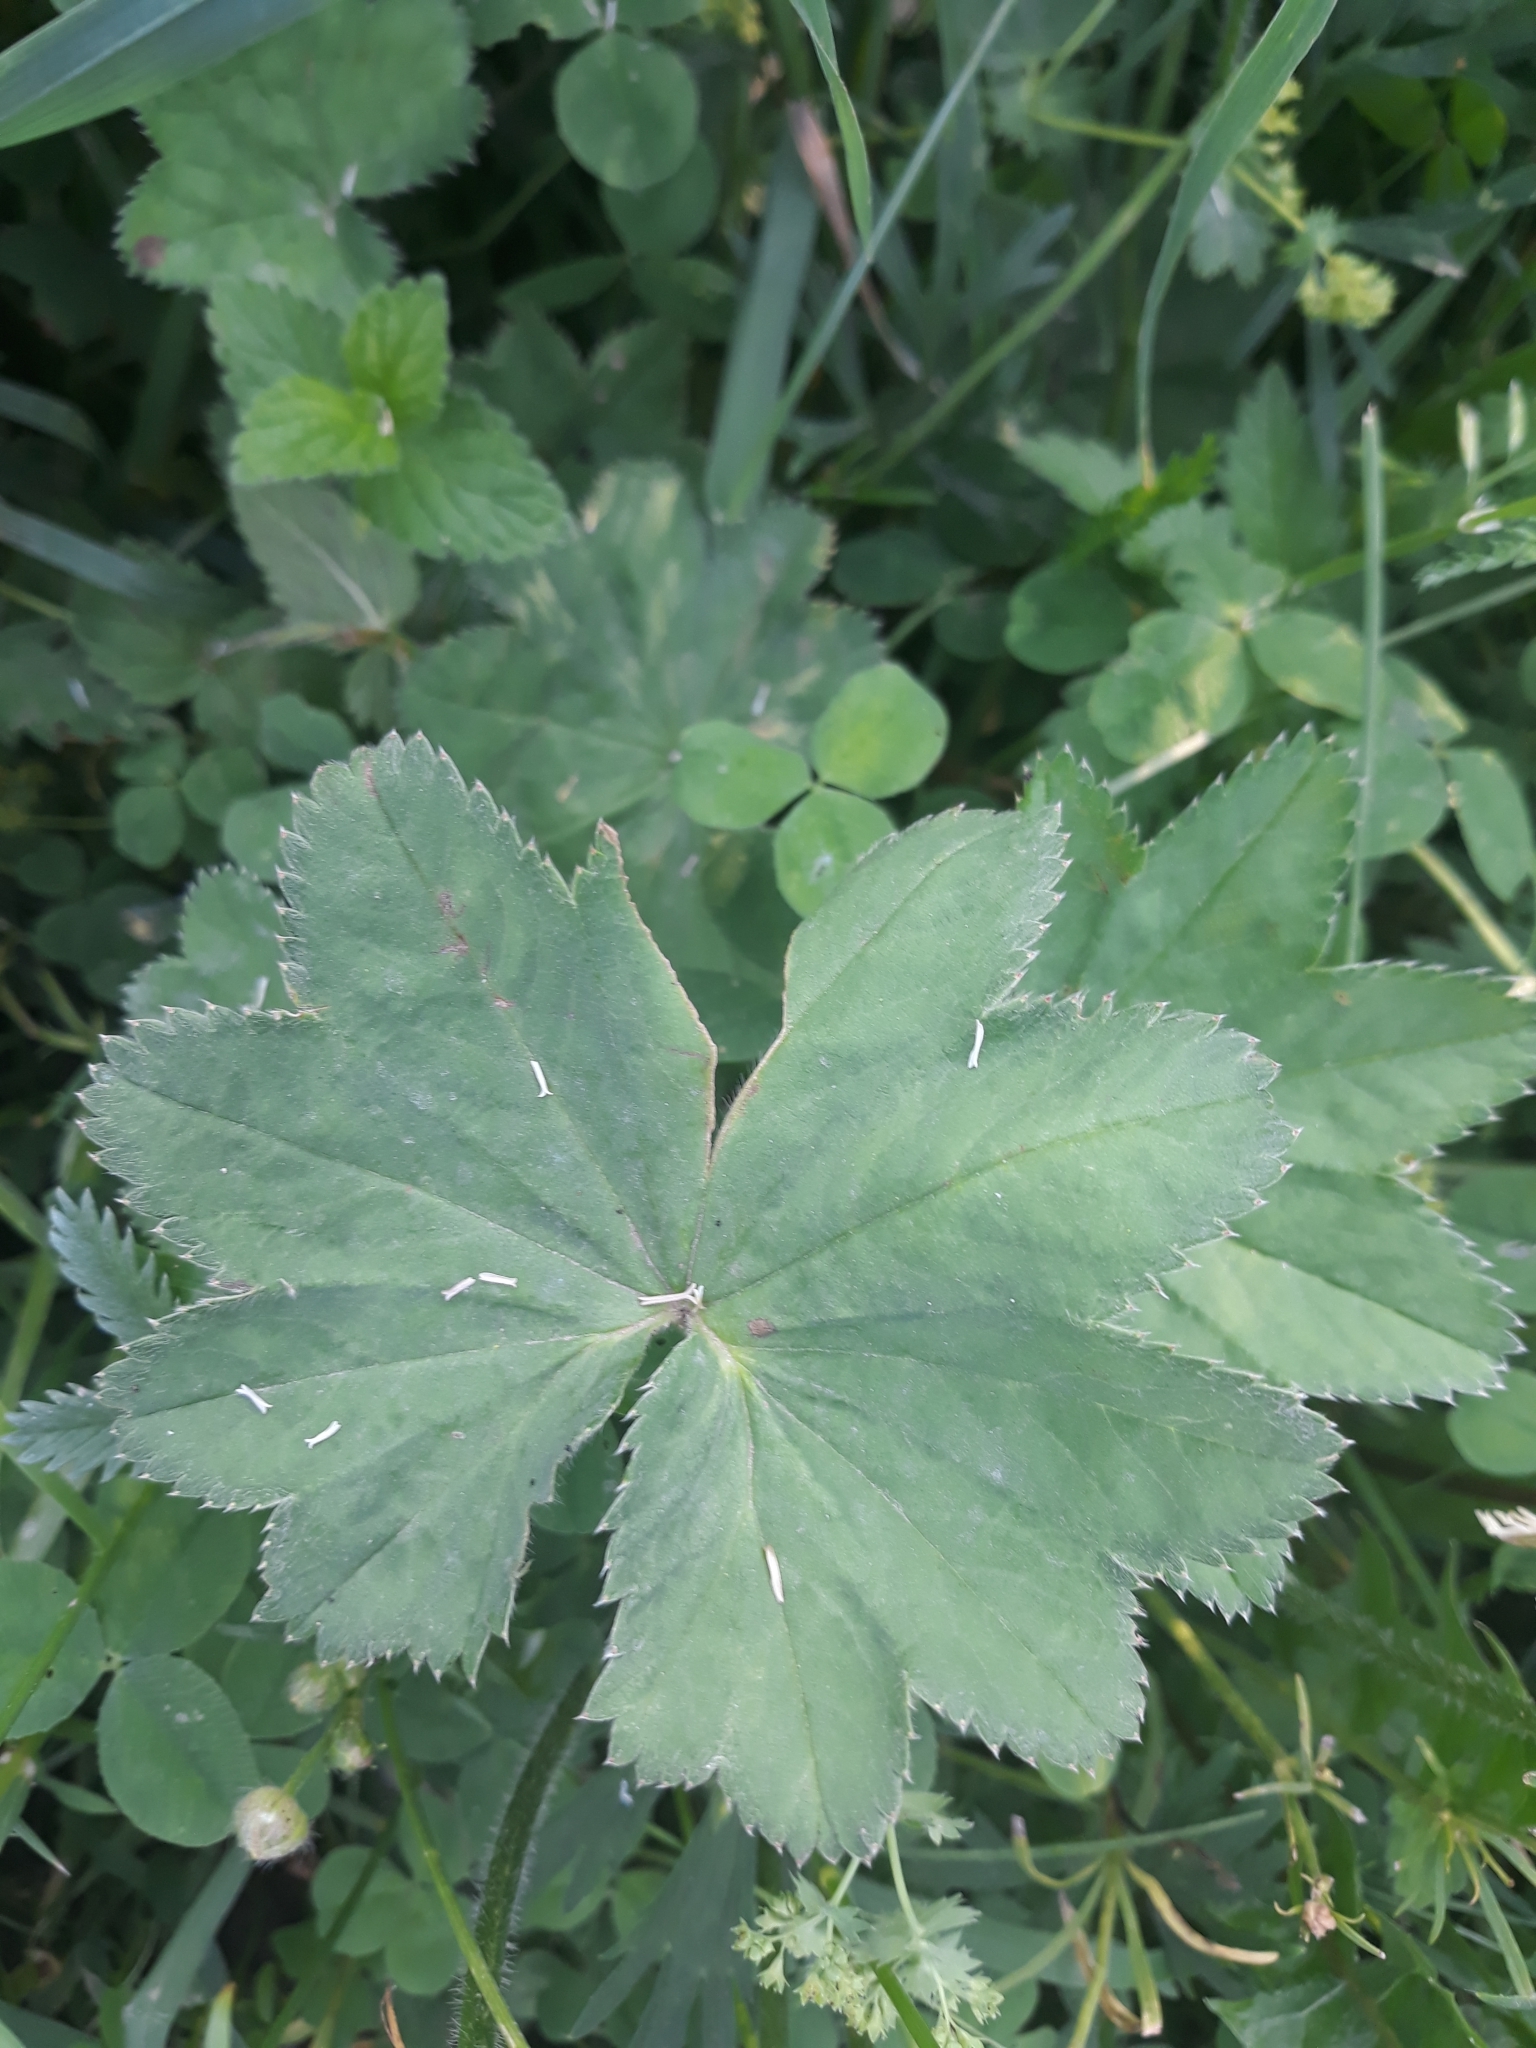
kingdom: Plantae
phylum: Tracheophyta
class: Magnoliopsida
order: Rosales
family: Rosaceae
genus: Alchemilla
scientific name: Alchemilla
